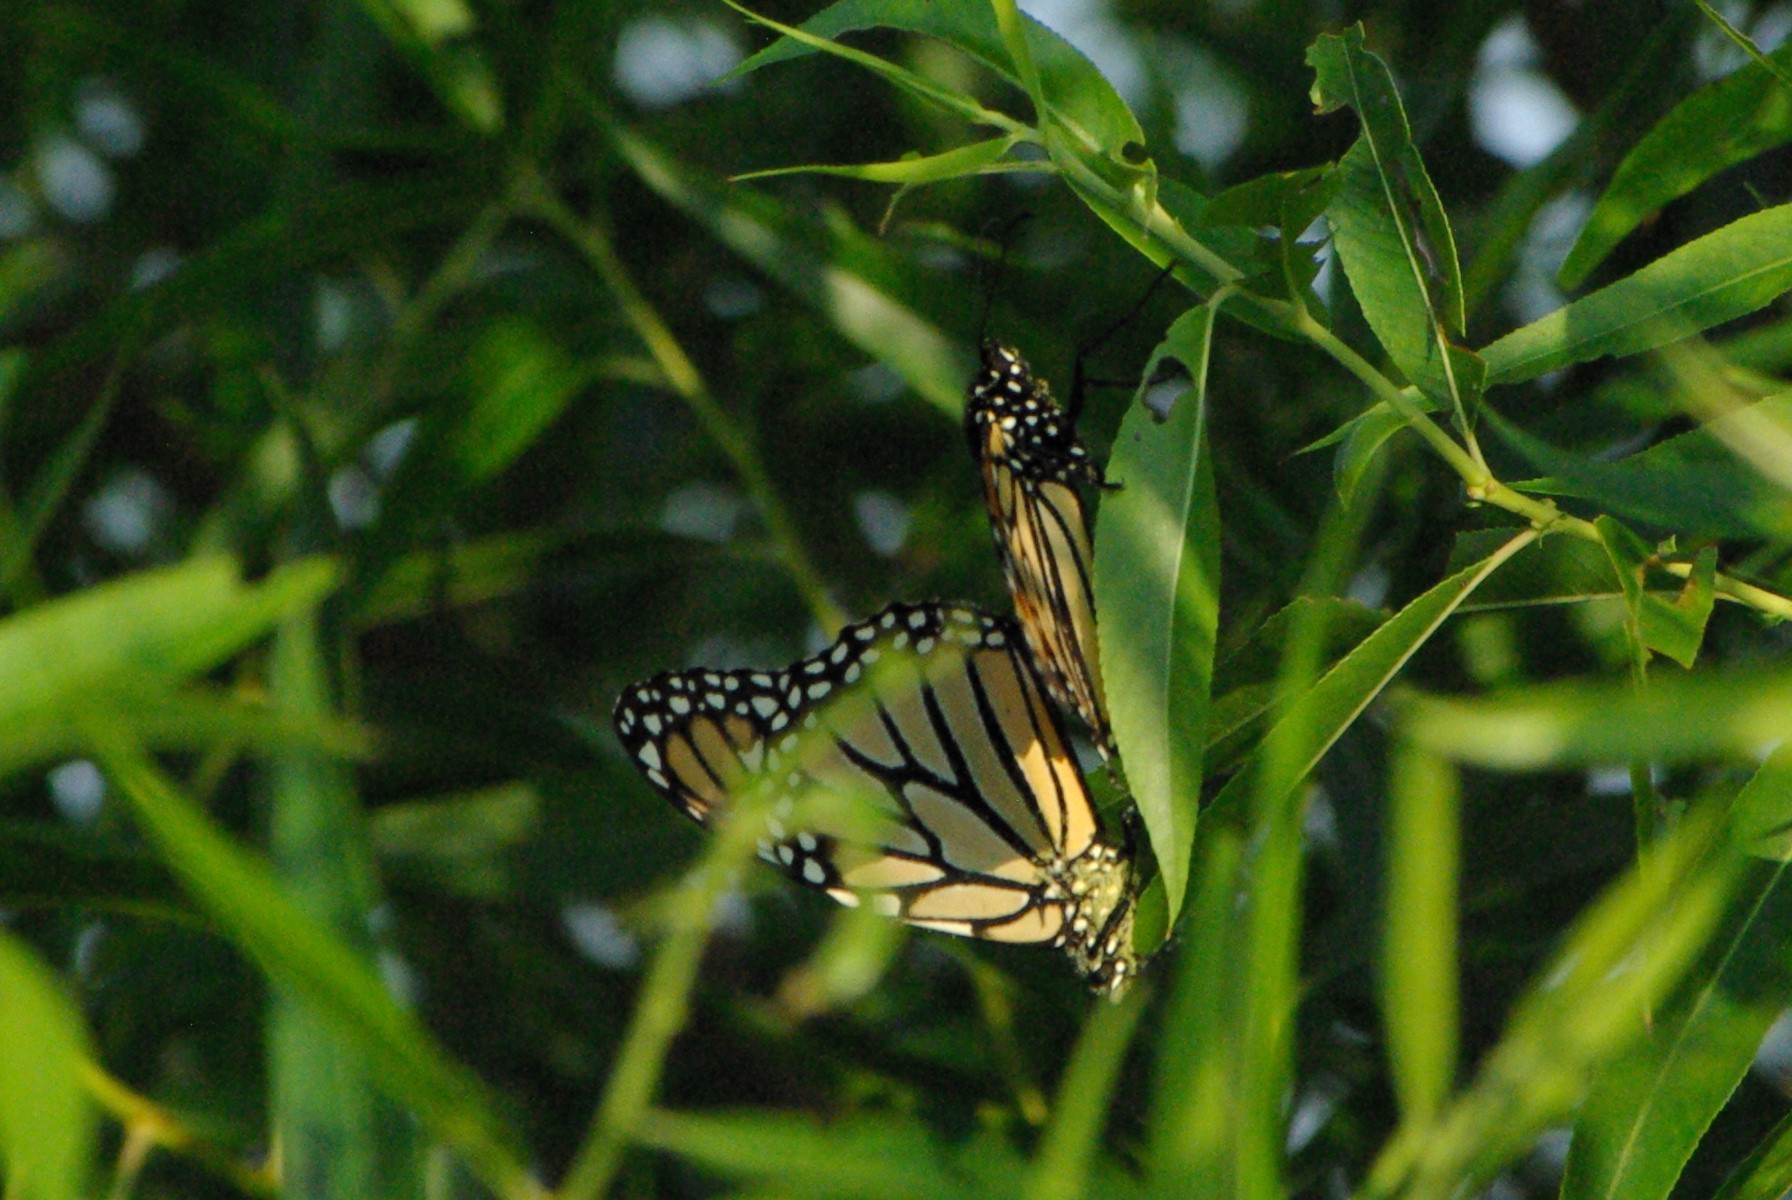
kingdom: Animalia
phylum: Arthropoda
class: Insecta
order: Lepidoptera
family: Nymphalidae
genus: Danaus
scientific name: Danaus plexippus
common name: Monarch
